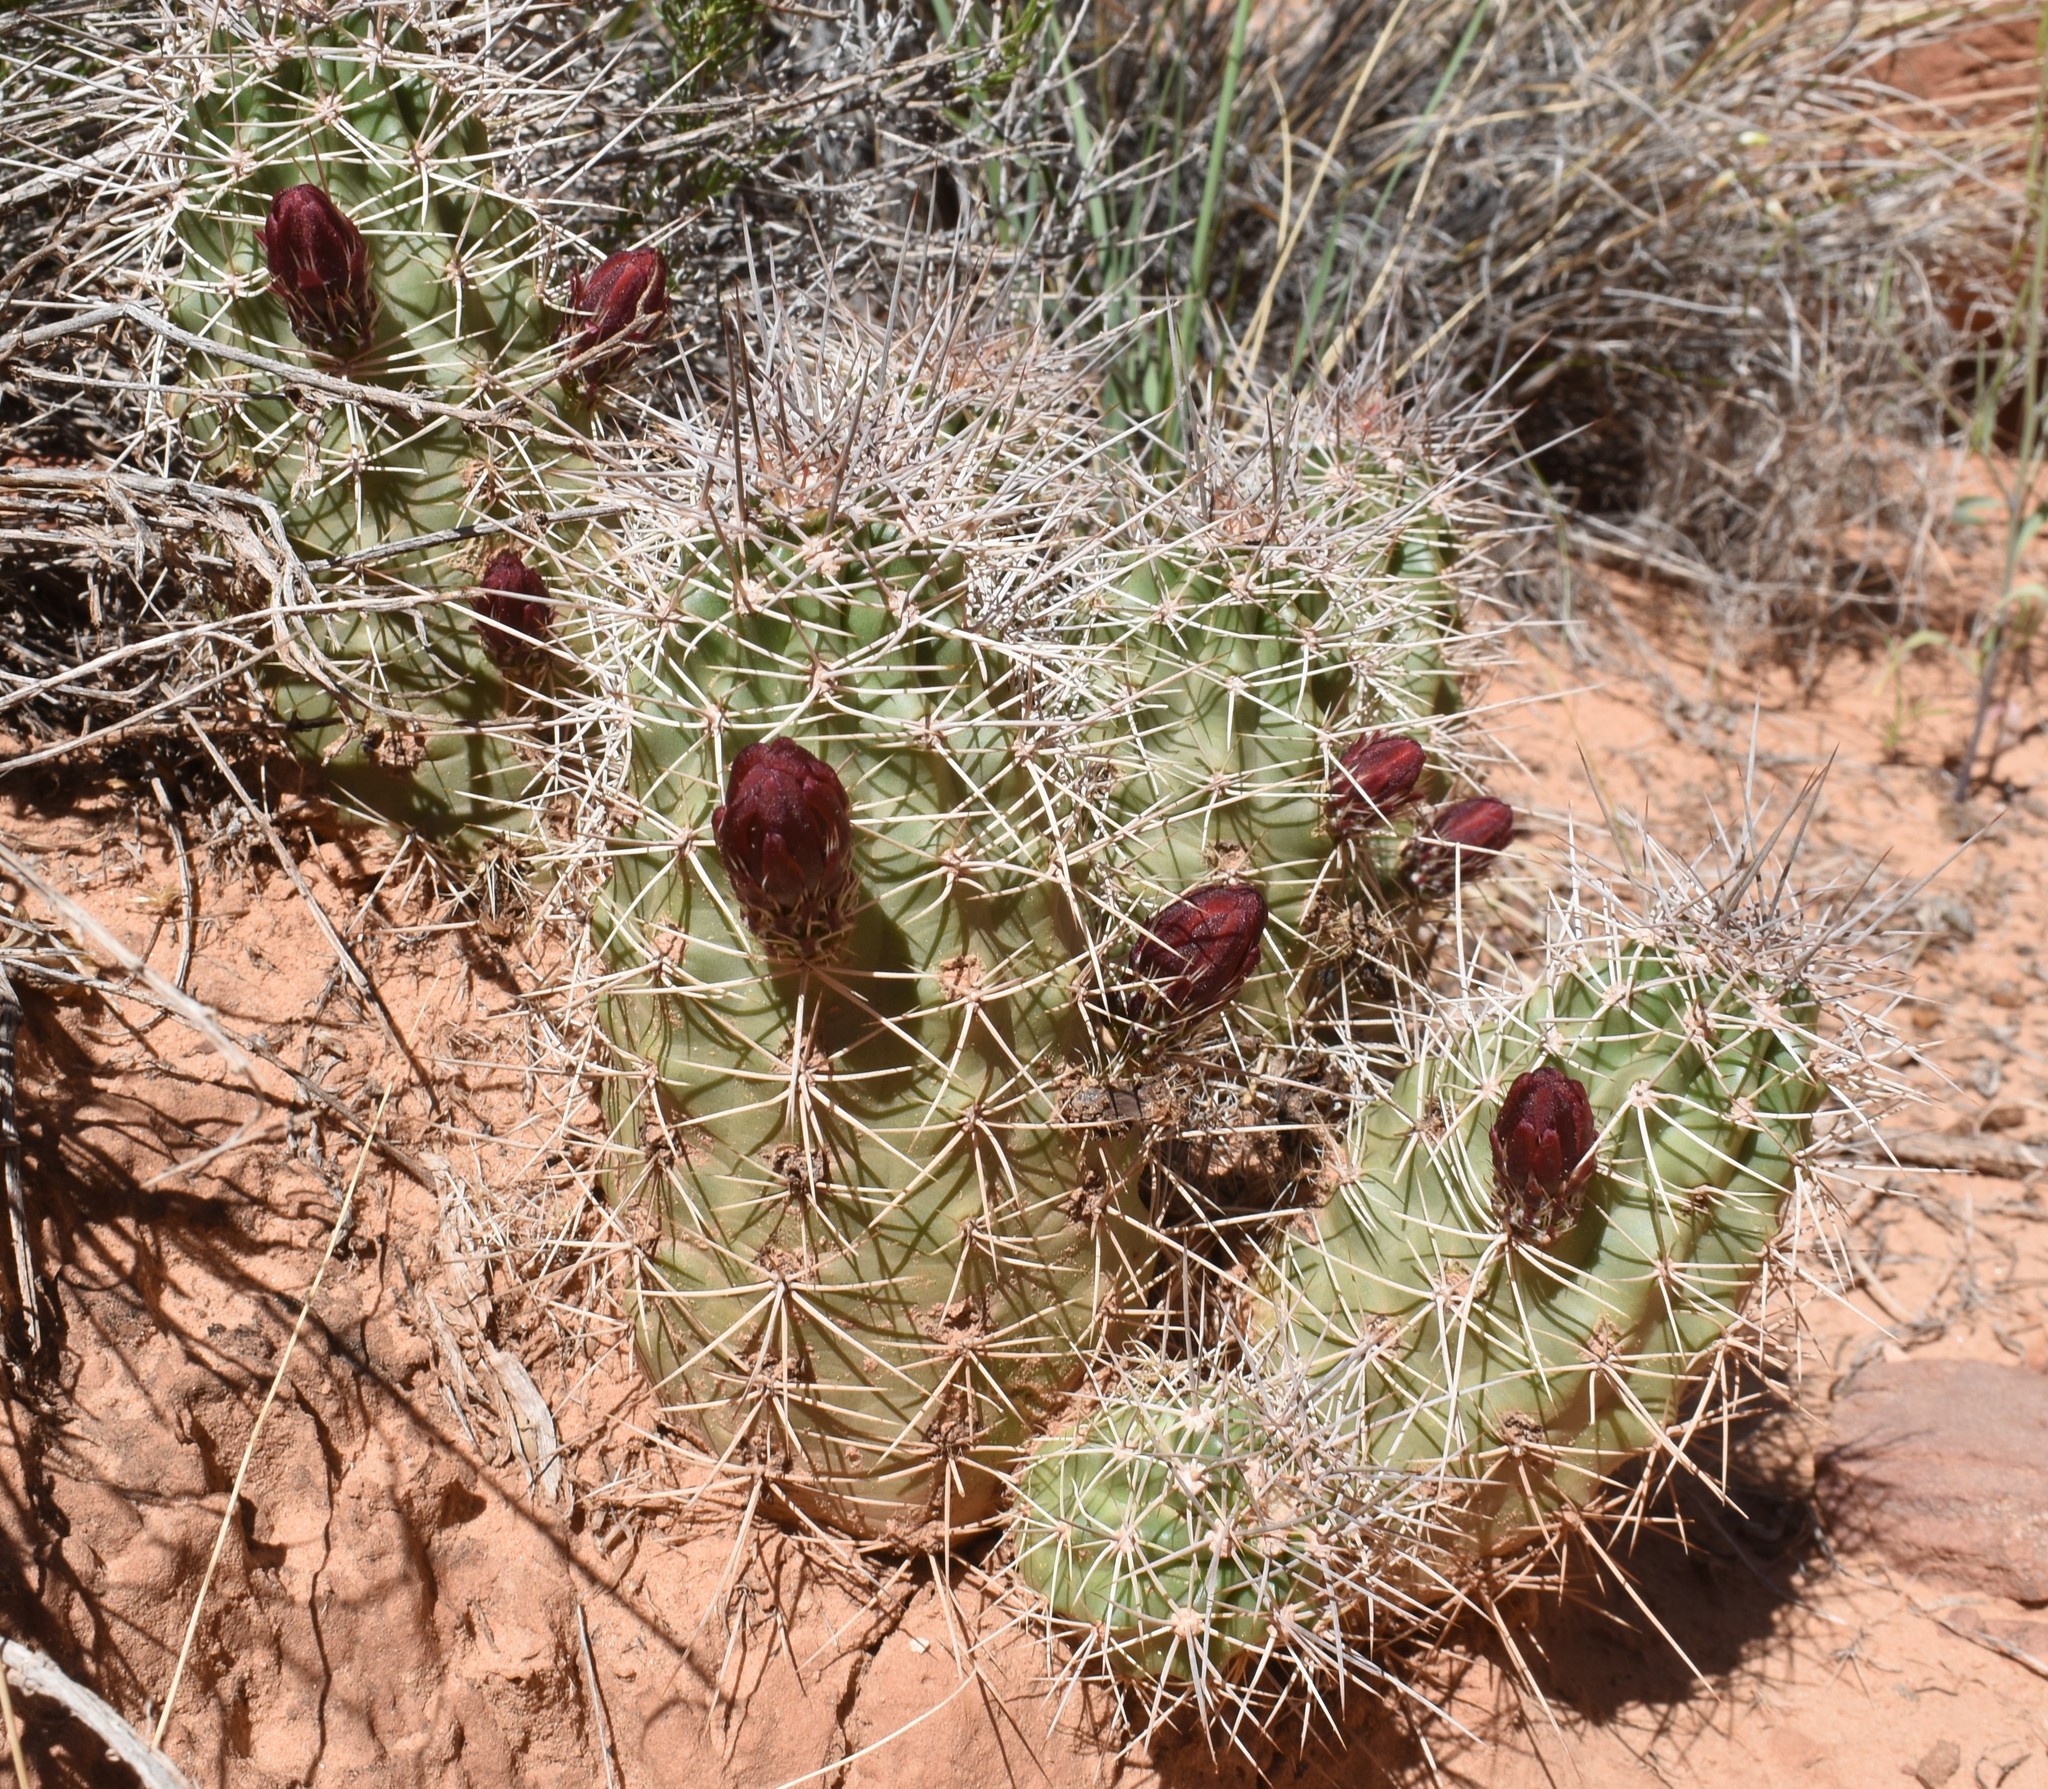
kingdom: Plantae
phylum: Tracheophyta
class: Magnoliopsida
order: Caryophyllales
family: Cactaceae
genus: Echinocereus
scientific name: Echinocereus triglochidiatus
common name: Claretcup hedgehog
